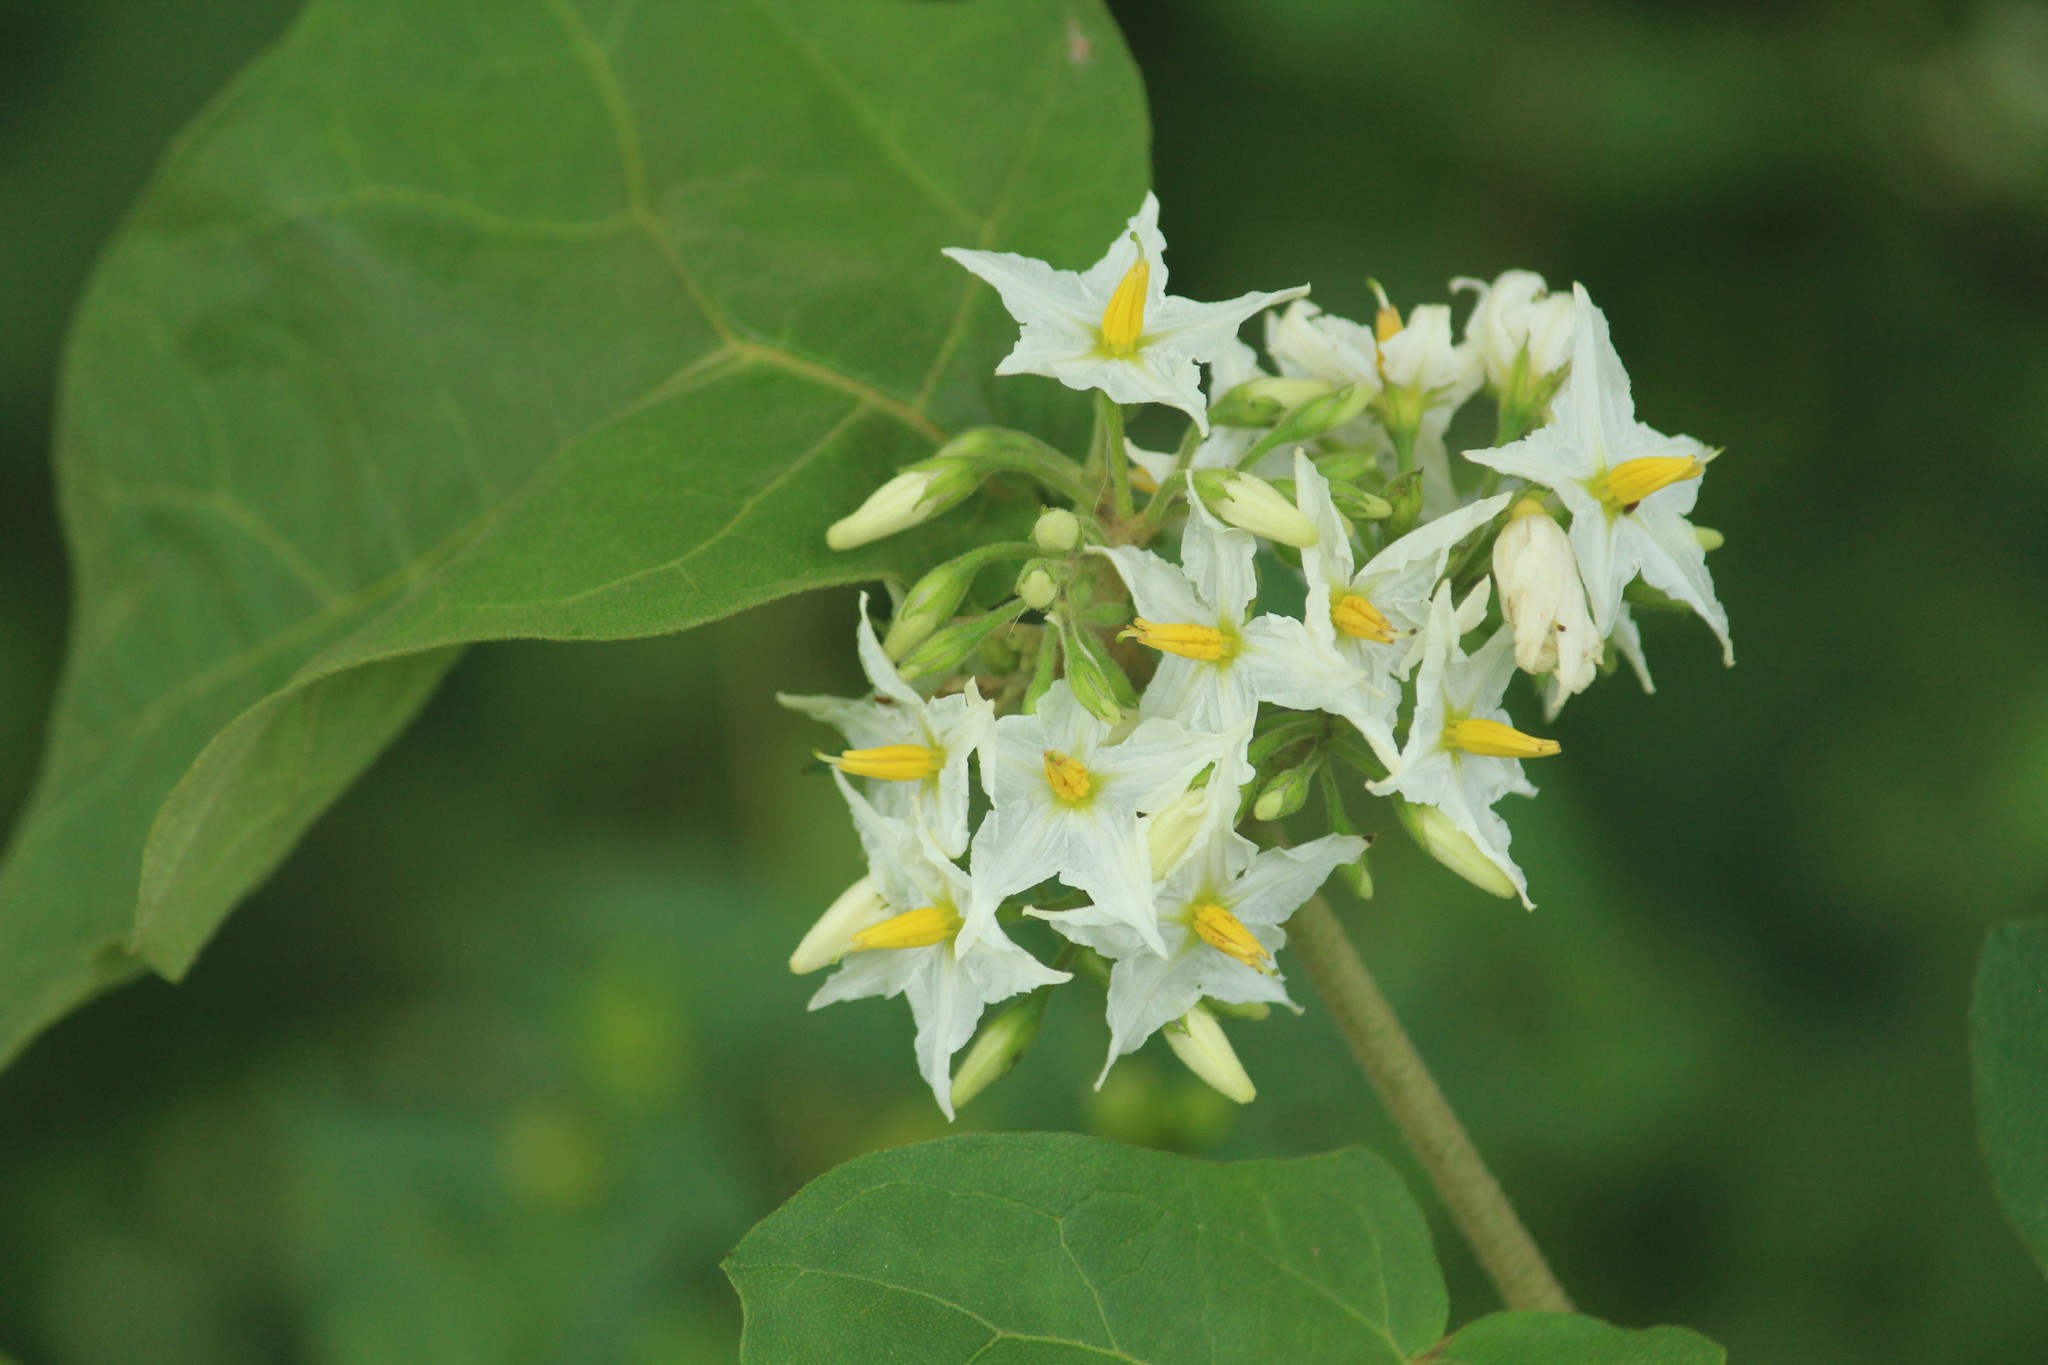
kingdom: Plantae
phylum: Tracheophyta
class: Magnoliopsida
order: Solanales
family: Solanaceae
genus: Solanum
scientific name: Solanum torvum
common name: Turkey berry
